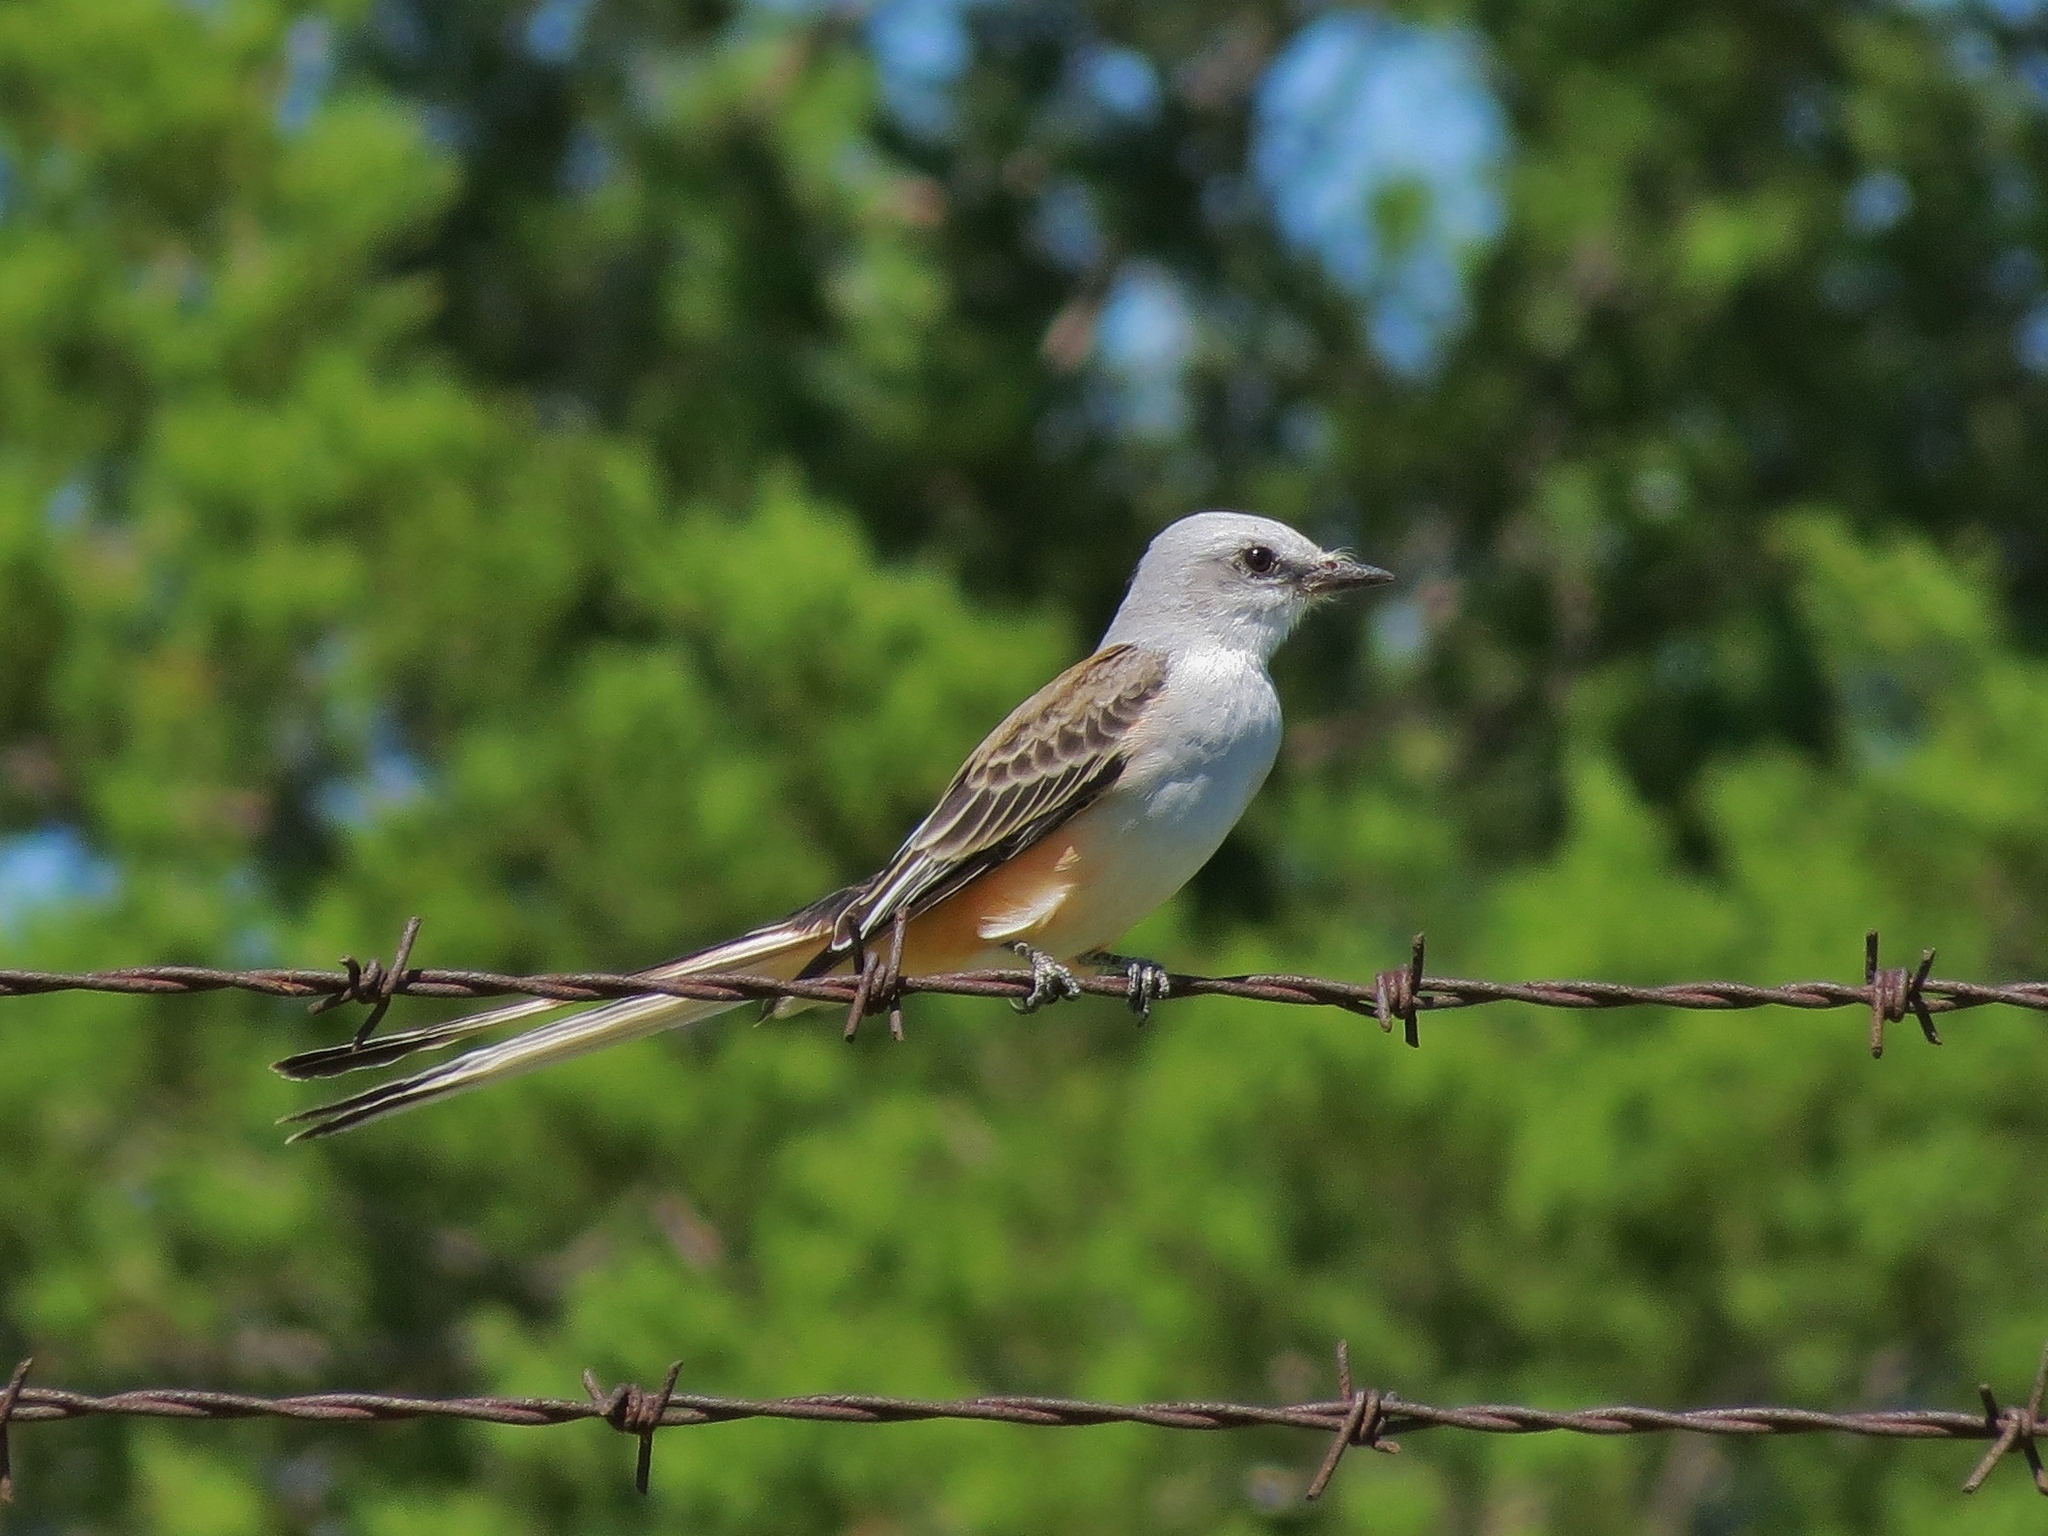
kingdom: Animalia
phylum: Chordata
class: Aves
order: Passeriformes
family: Tyrannidae
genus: Tyrannus
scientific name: Tyrannus forficatus
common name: Scissor-tailed flycatcher
